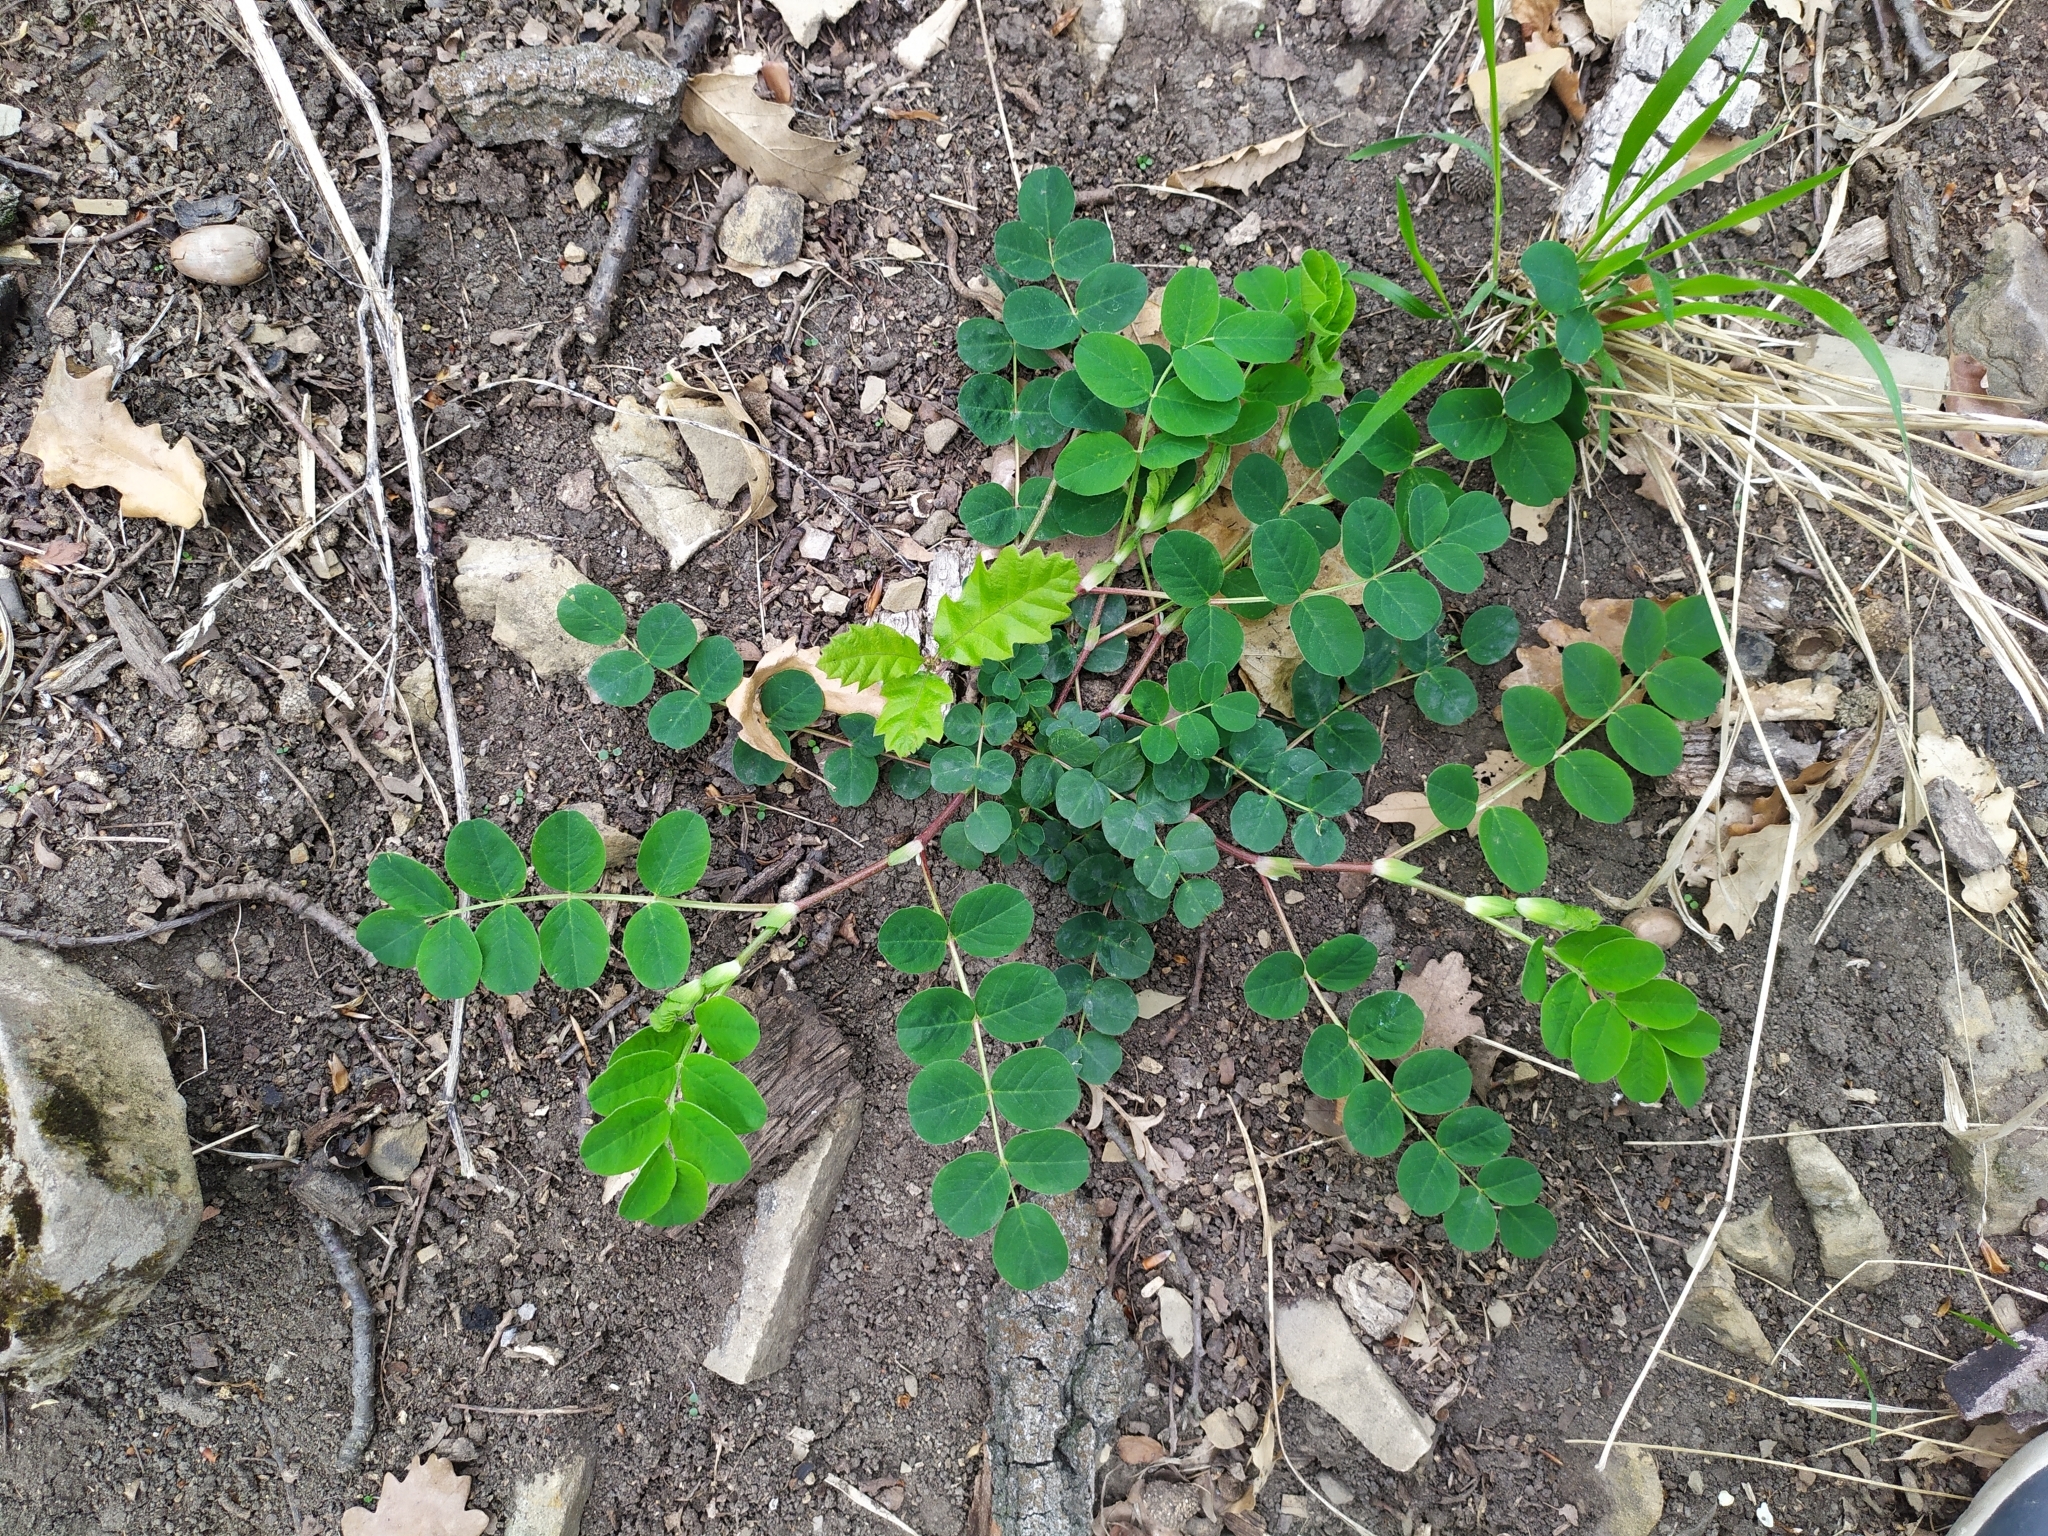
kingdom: Plantae
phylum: Tracheophyta
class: Magnoliopsida
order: Fabales
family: Fabaceae
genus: Astragalus
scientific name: Astragalus glycyphyllos
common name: Wild liquorice
